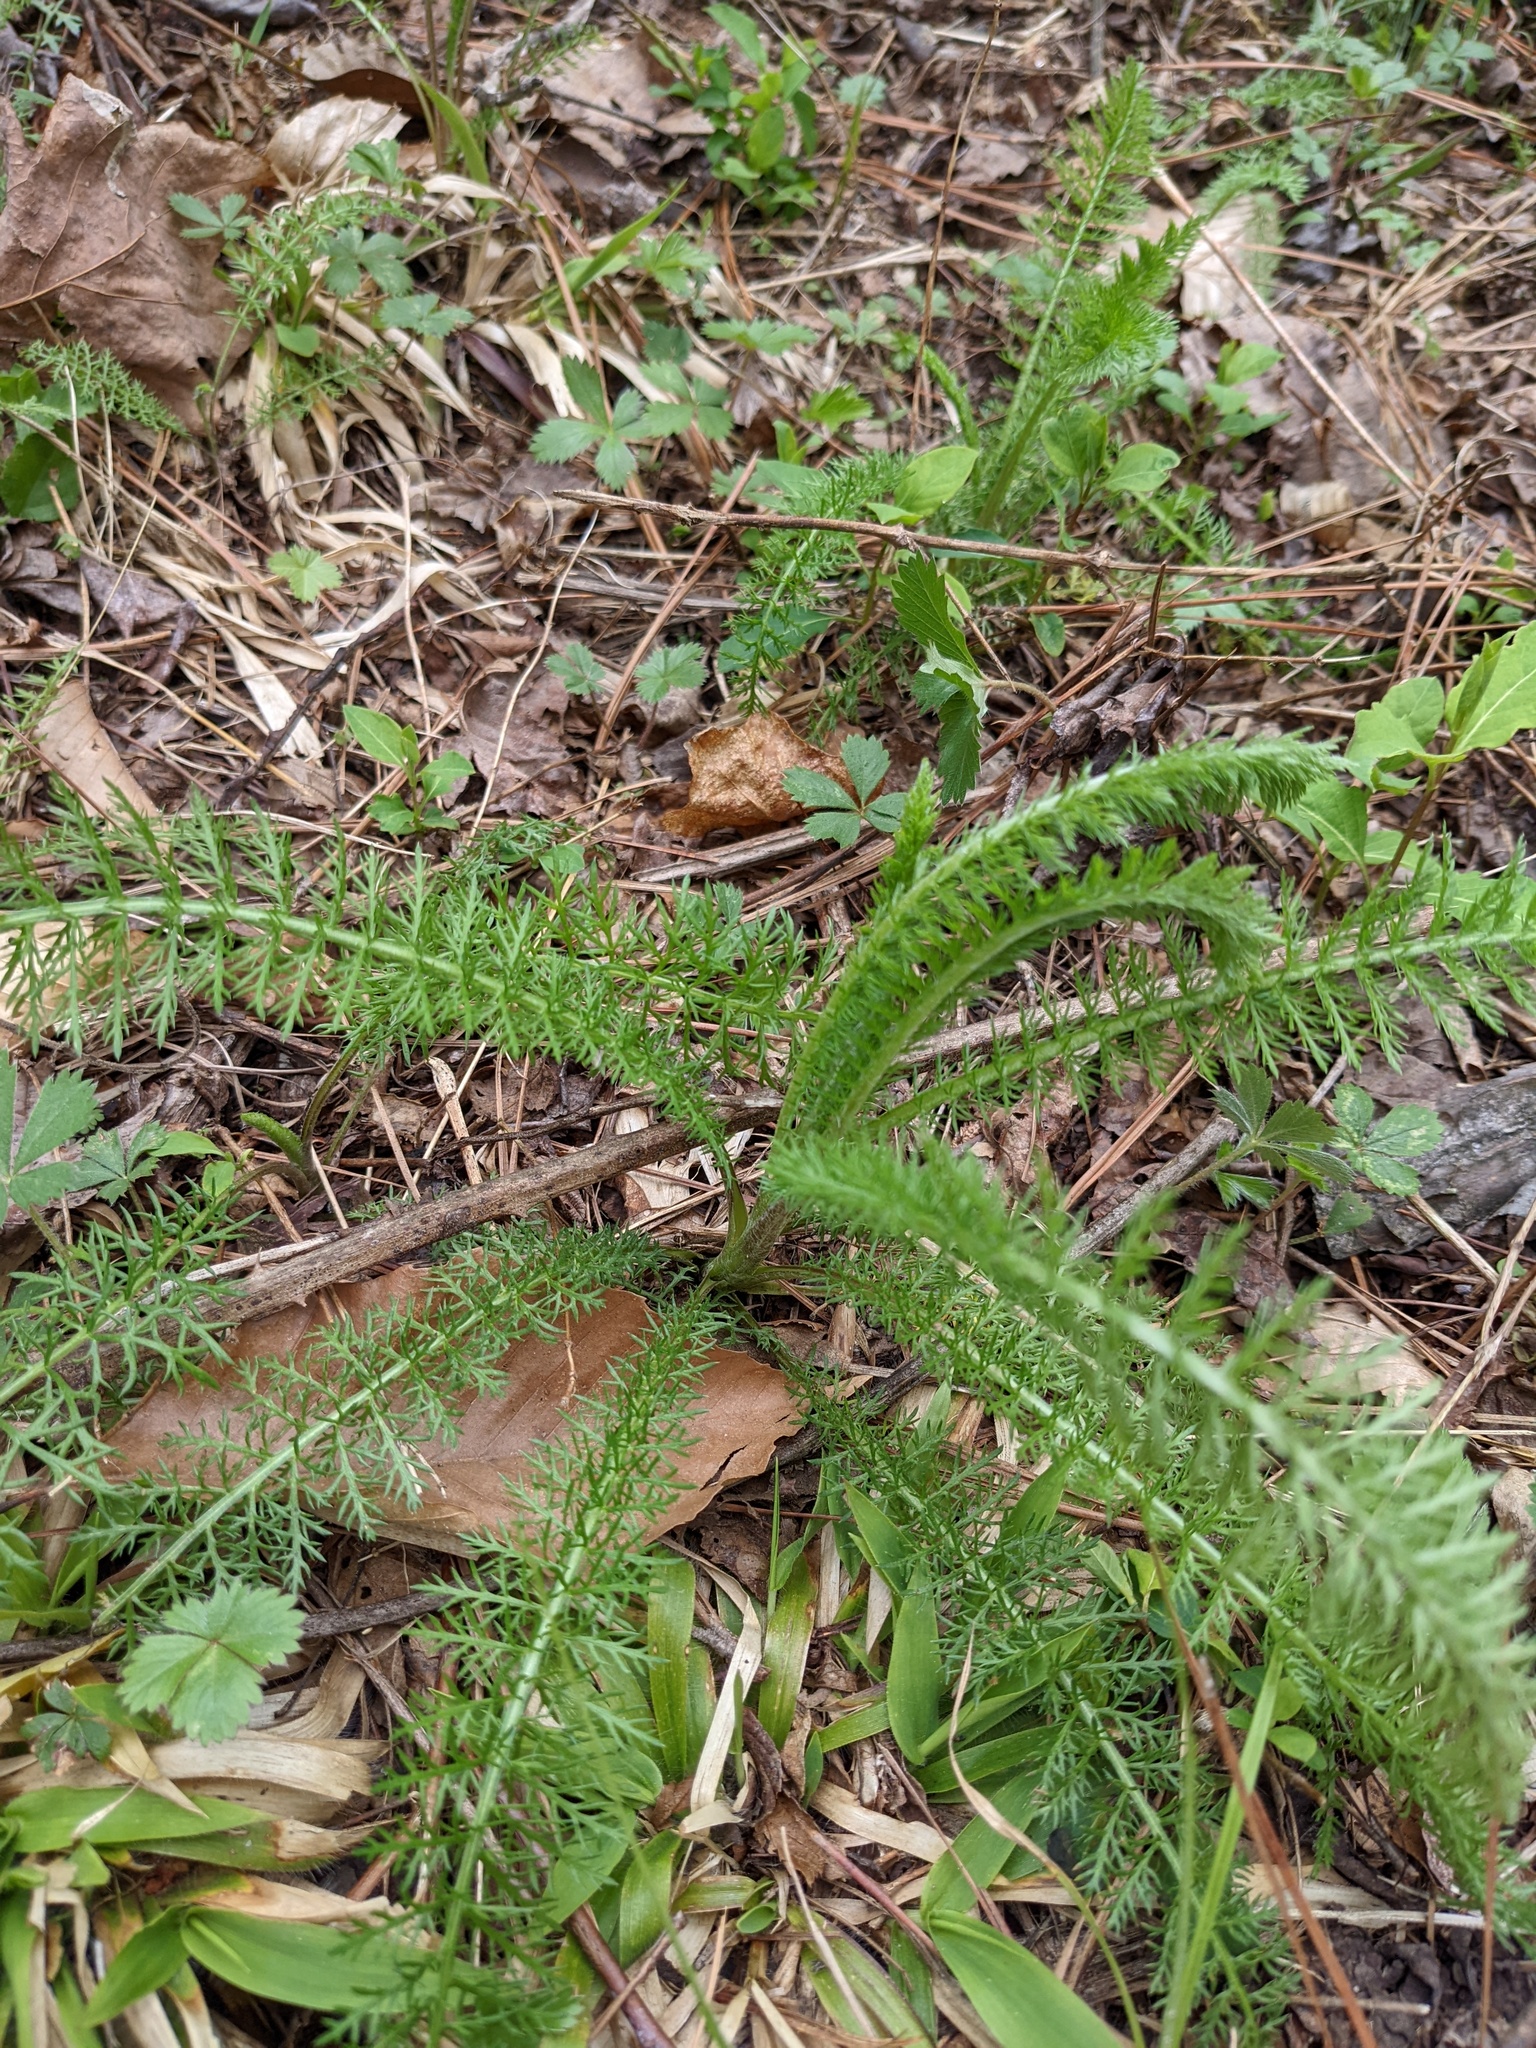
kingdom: Plantae
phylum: Tracheophyta
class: Magnoliopsida
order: Asterales
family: Asteraceae
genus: Achillea
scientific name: Achillea millefolium
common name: Yarrow
